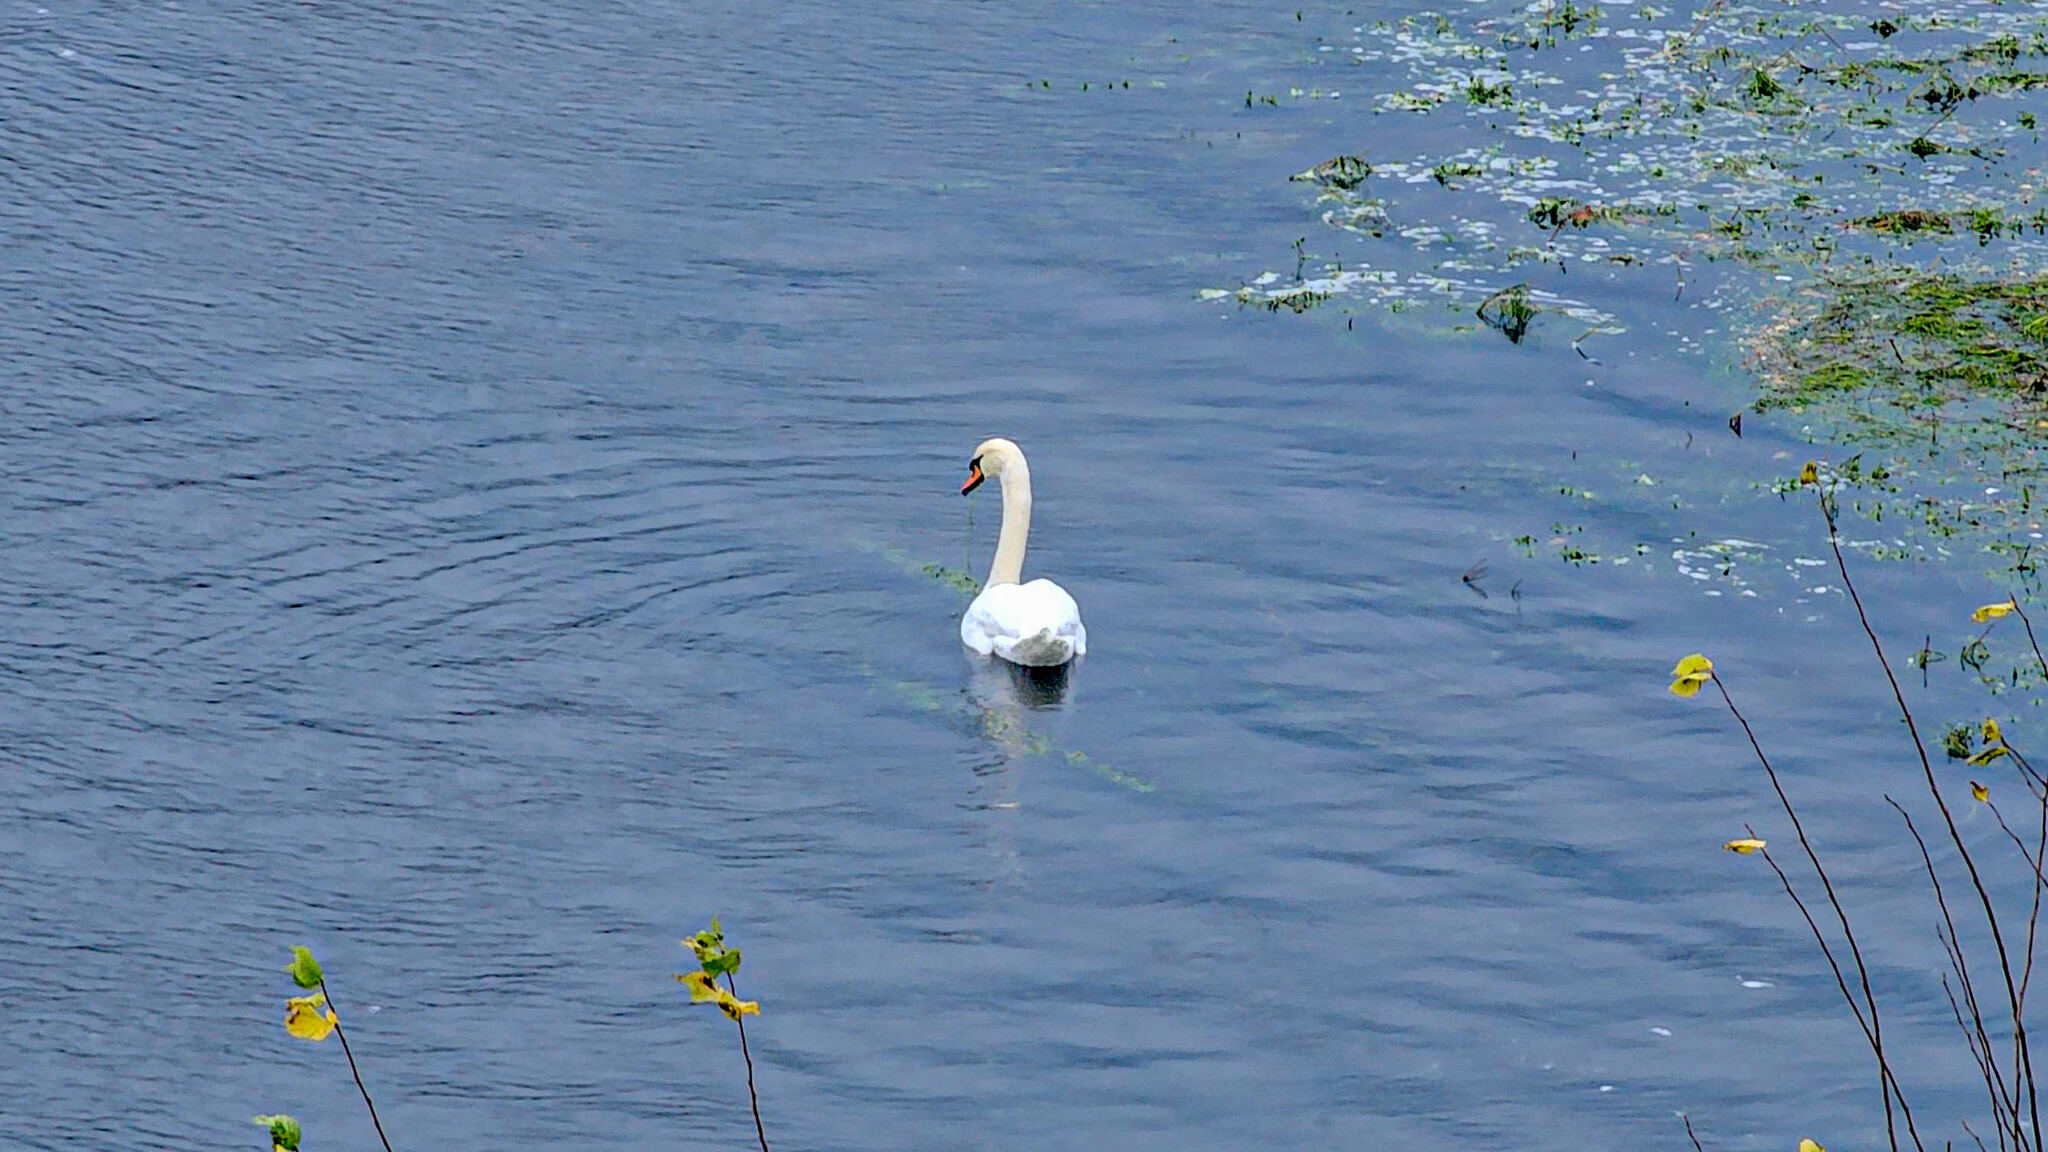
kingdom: Animalia
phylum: Chordata
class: Aves
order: Anseriformes
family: Anatidae
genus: Cygnus
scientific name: Cygnus olor
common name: Mute swan
